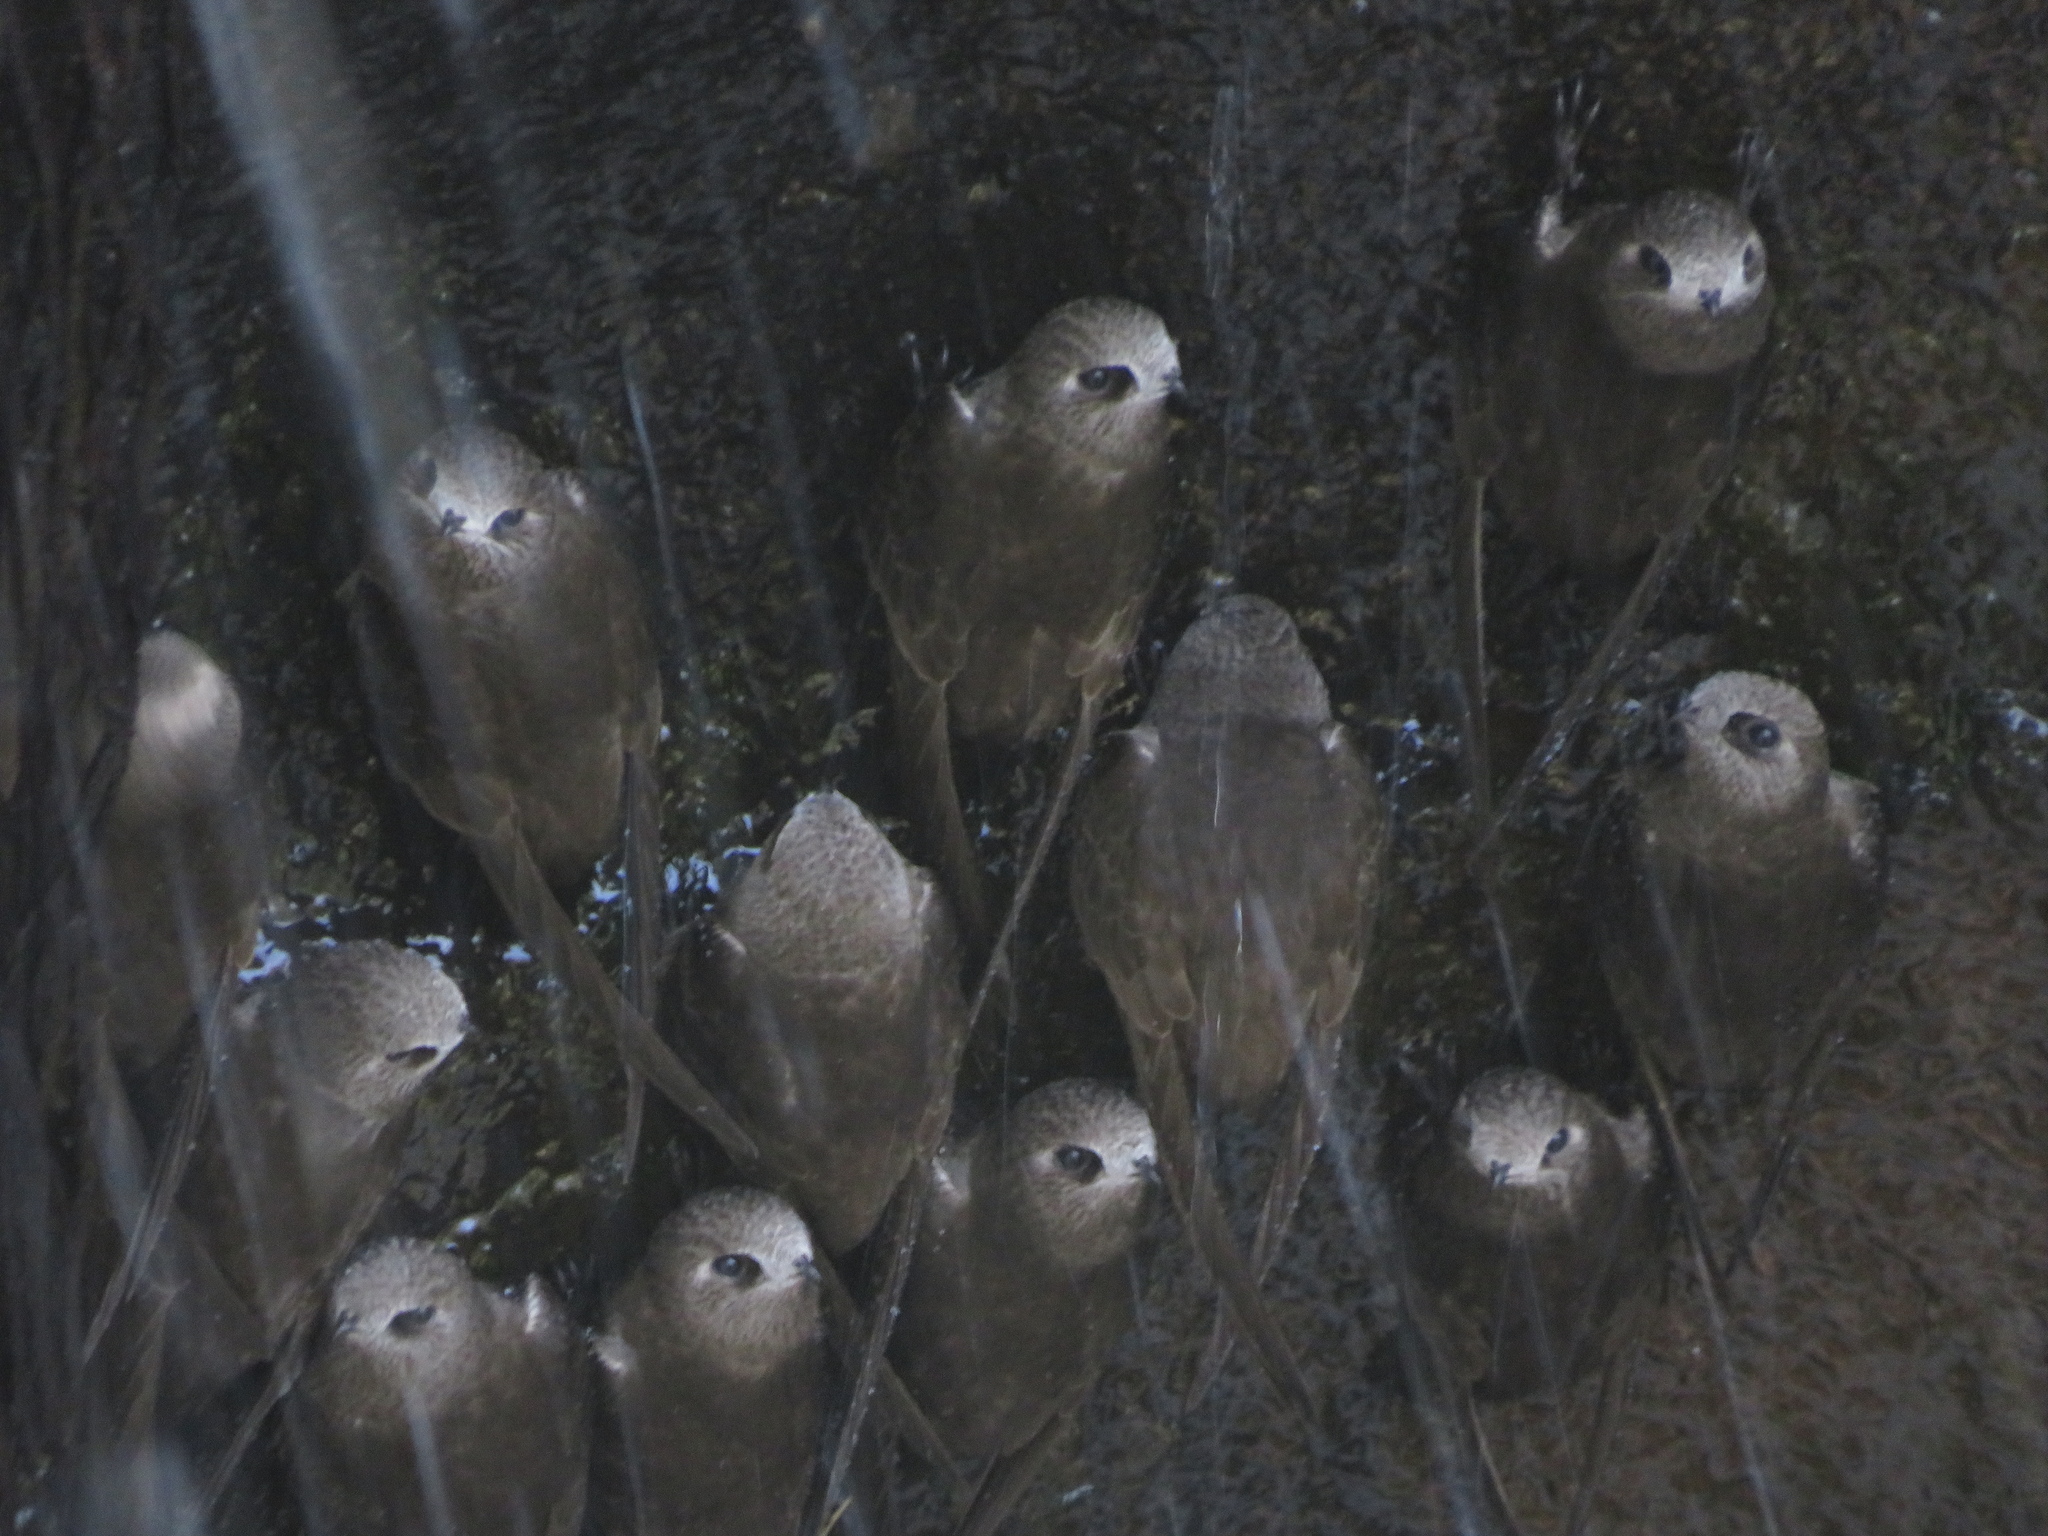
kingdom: Animalia
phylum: Chordata
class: Aves
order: Apodiformes
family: Apodidae
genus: Cypseloides
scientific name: Cypseloides senex
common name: Great dusky swift
